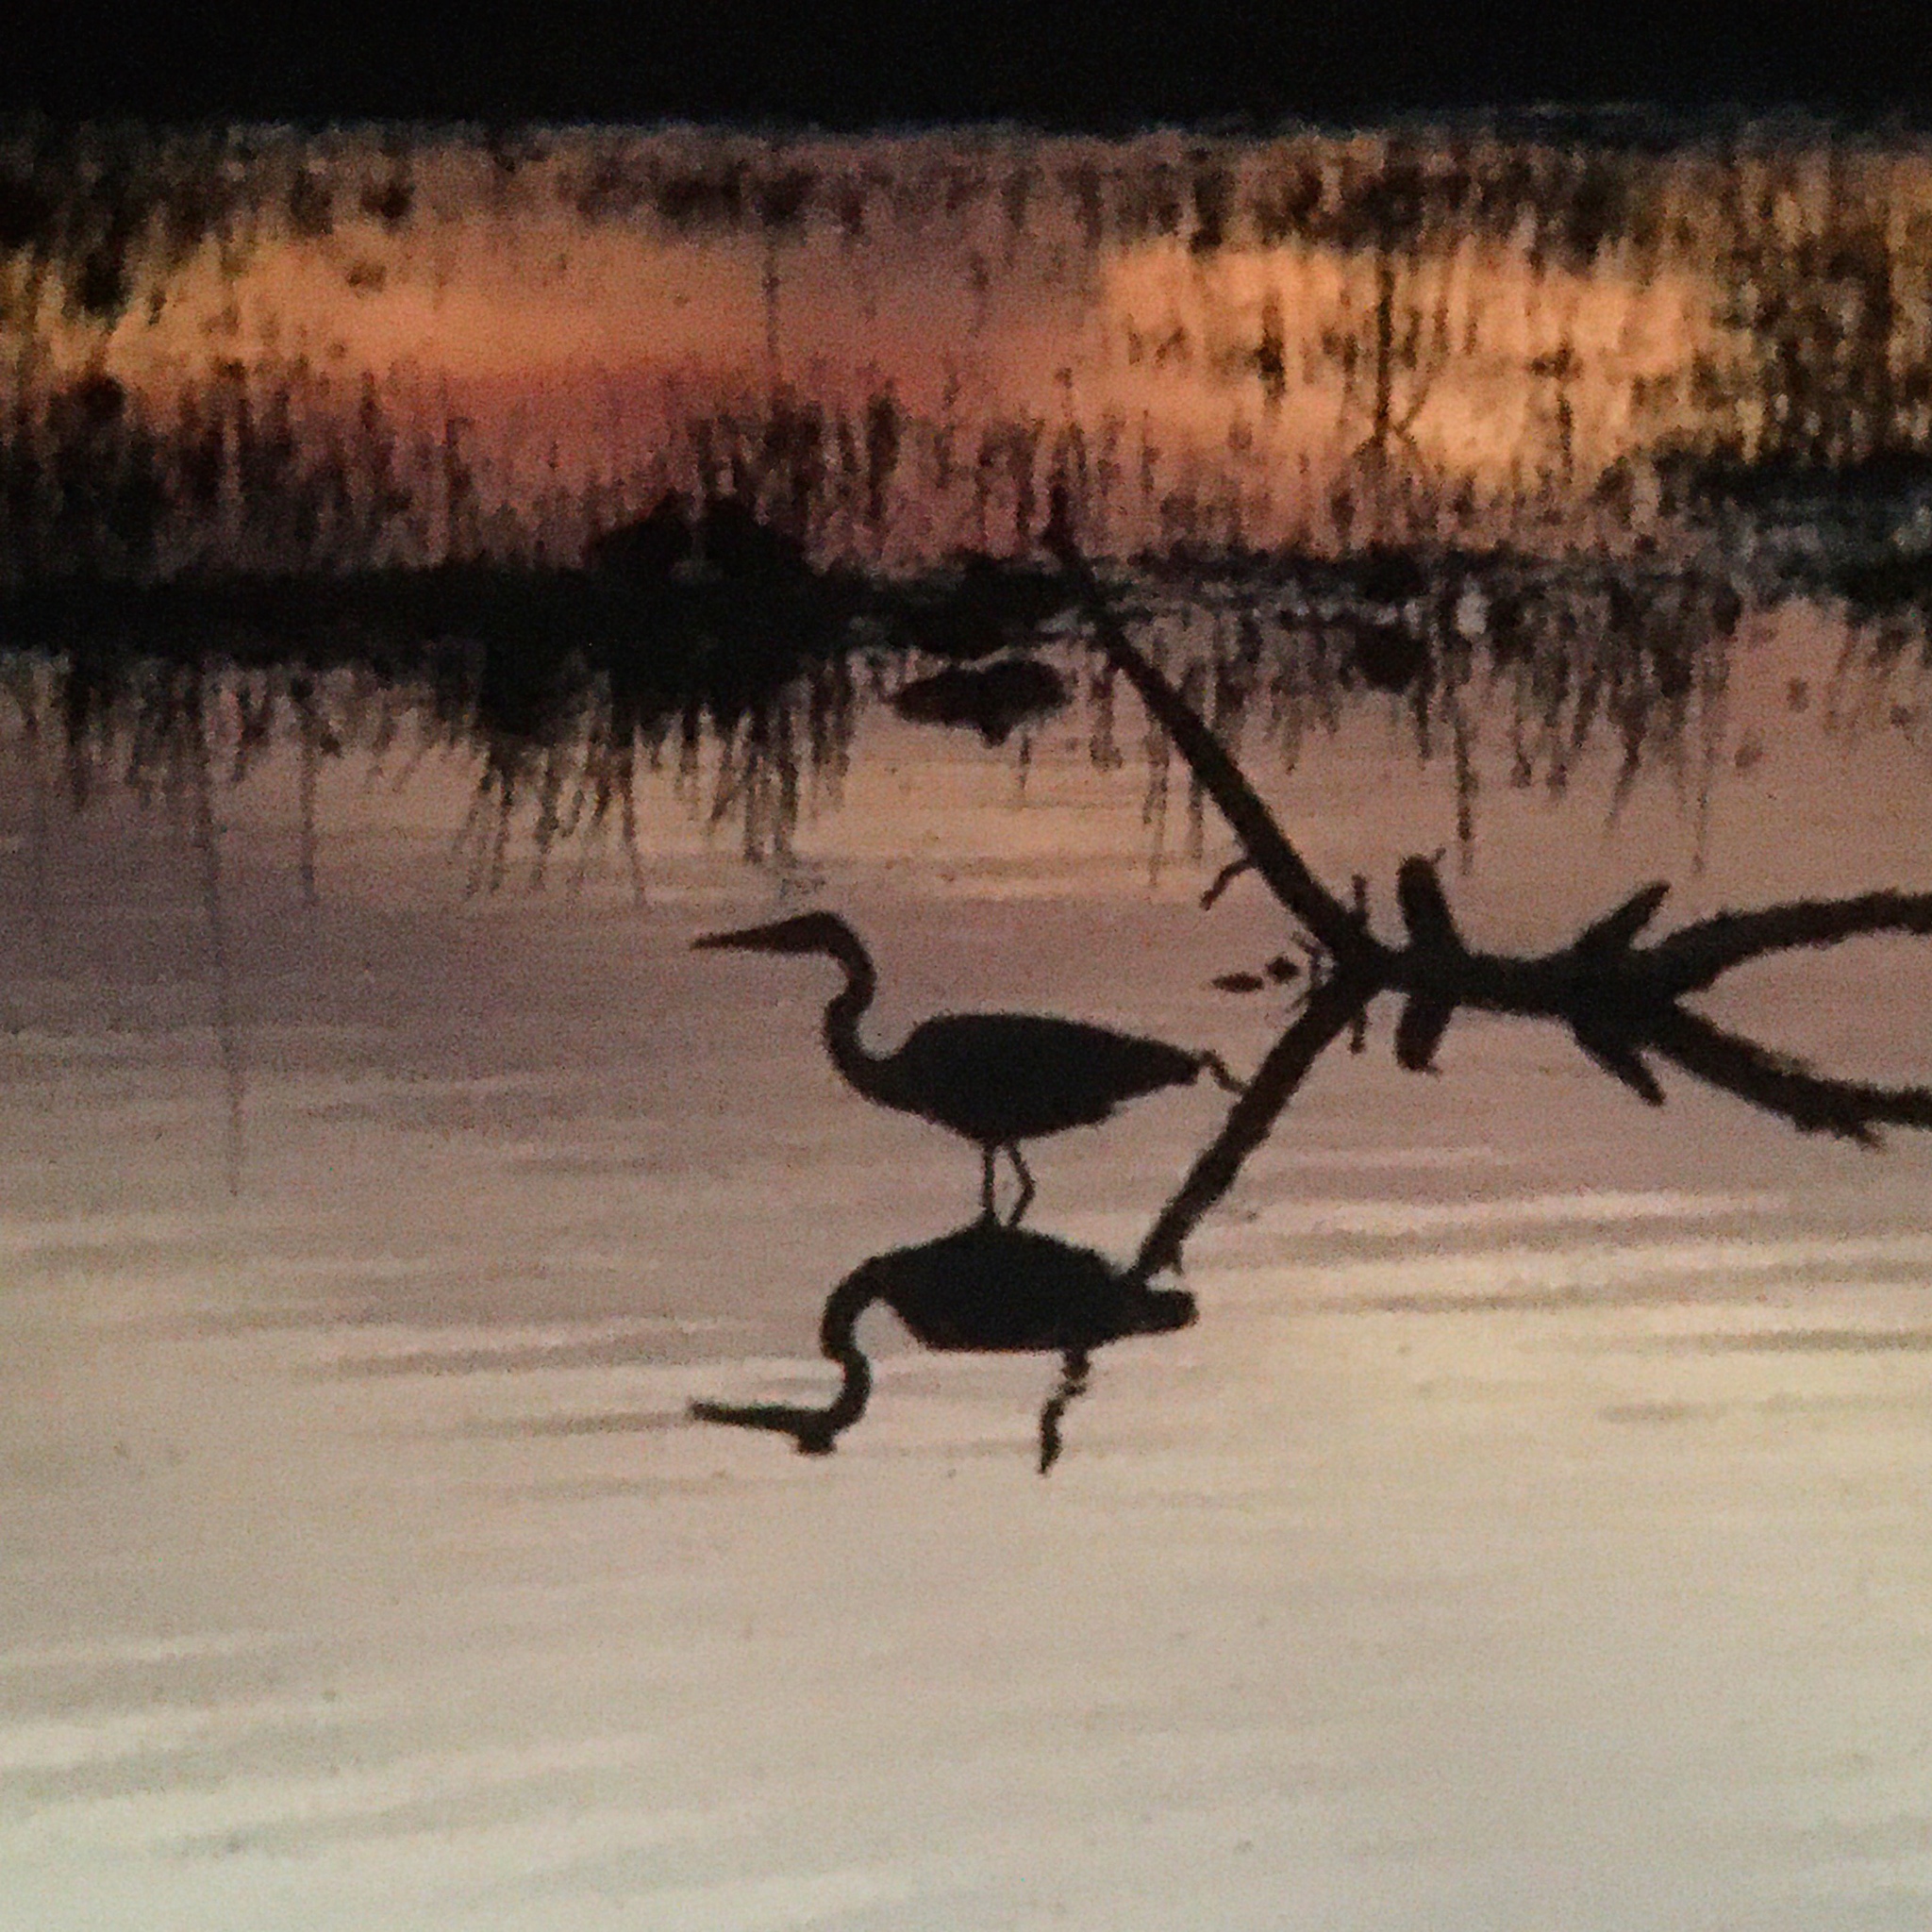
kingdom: Animalia
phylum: Chordata
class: Aves
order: Pelecaniformes
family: Ardeidae
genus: Ardea
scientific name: Ardea cocoi
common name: Cocoi heron
